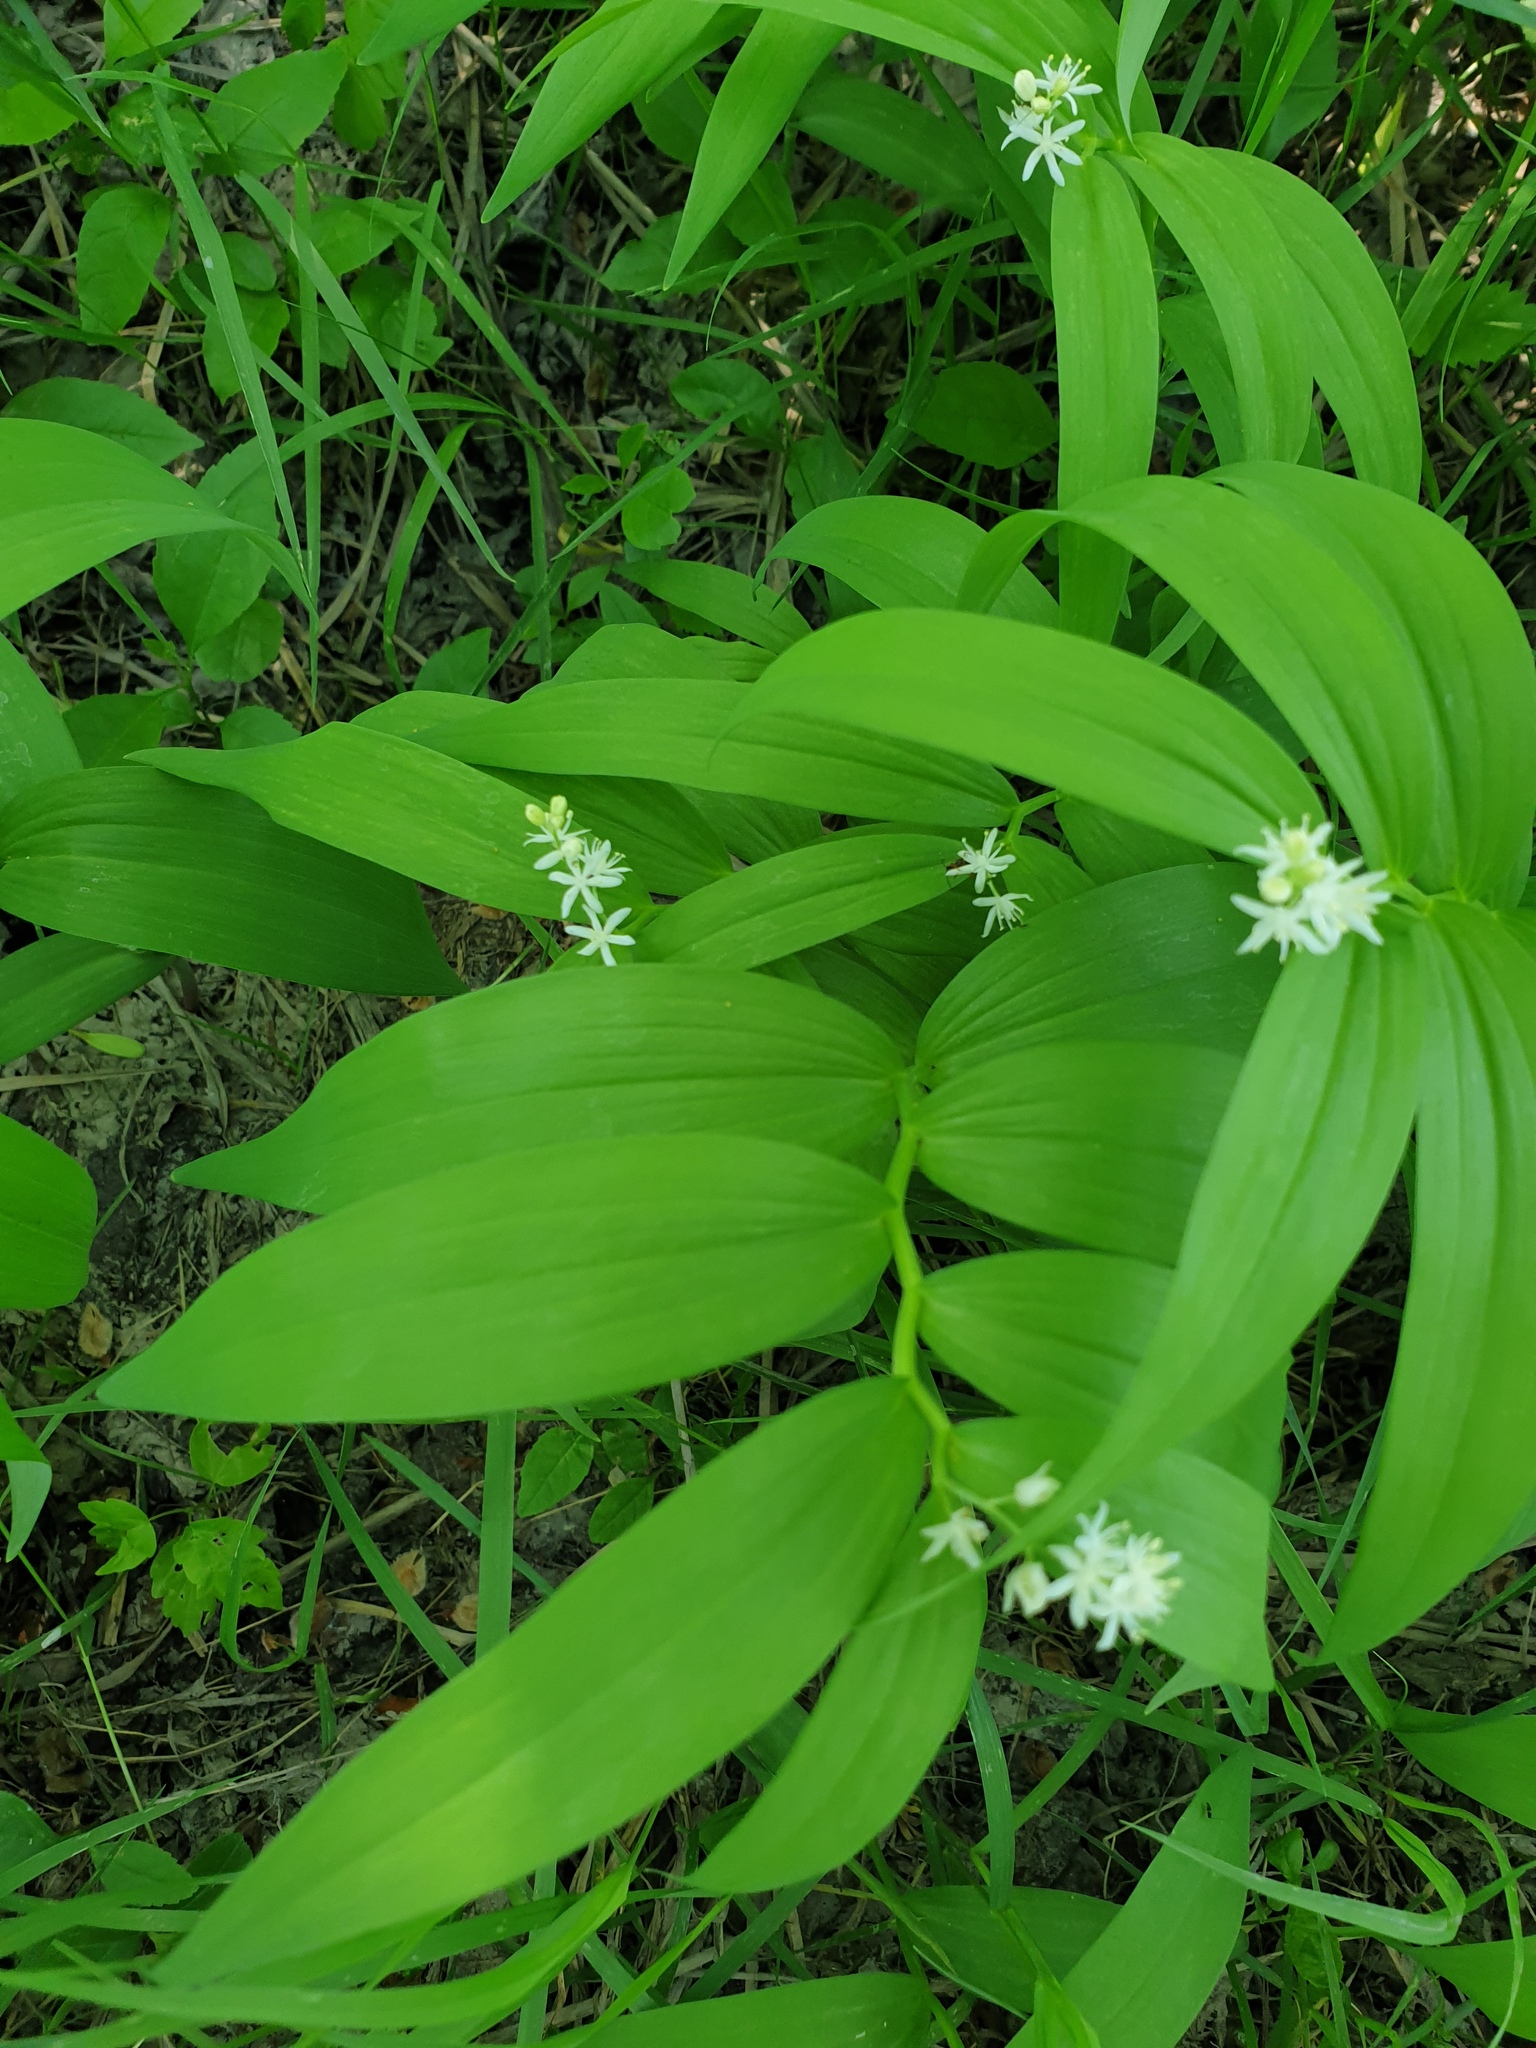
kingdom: Plantae
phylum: Tracheophyta
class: Liliopsida
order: Asparagales
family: Asparagaceae
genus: Maianthemum
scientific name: Maianthemum stellatum
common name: Little false solomon's seal
